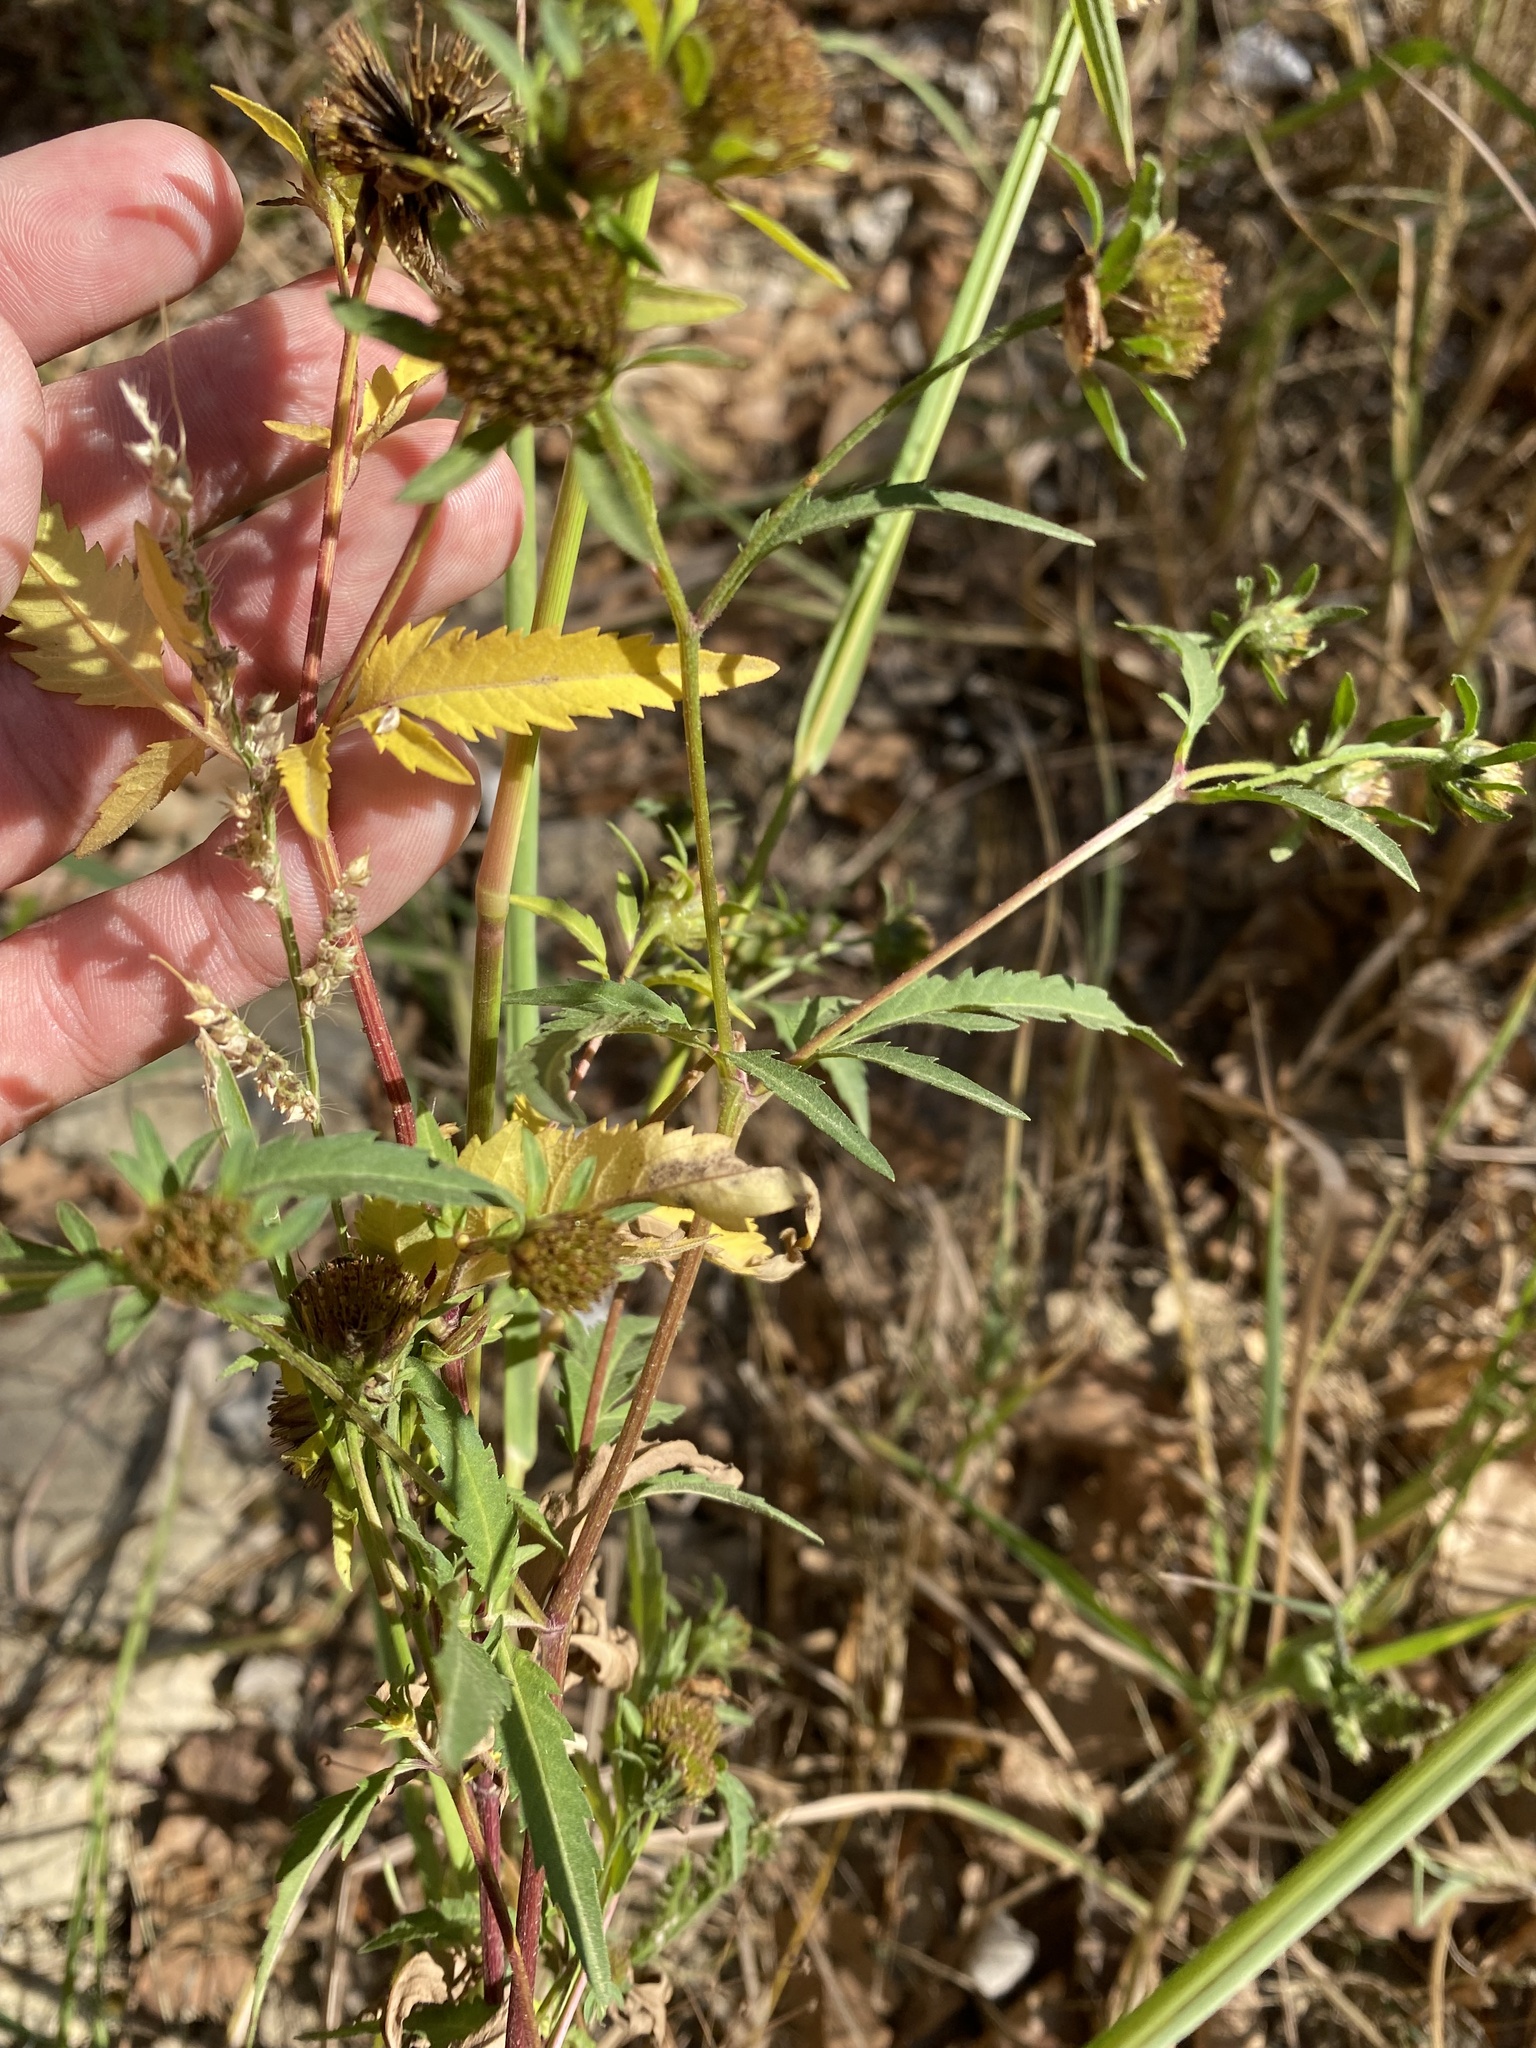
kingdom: Plantae
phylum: Tracheophyta
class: Magnoliopsida
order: Asterales
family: Asteraceae
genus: Bidens
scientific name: Bidens tripartita
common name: Trifid bur-marigold
